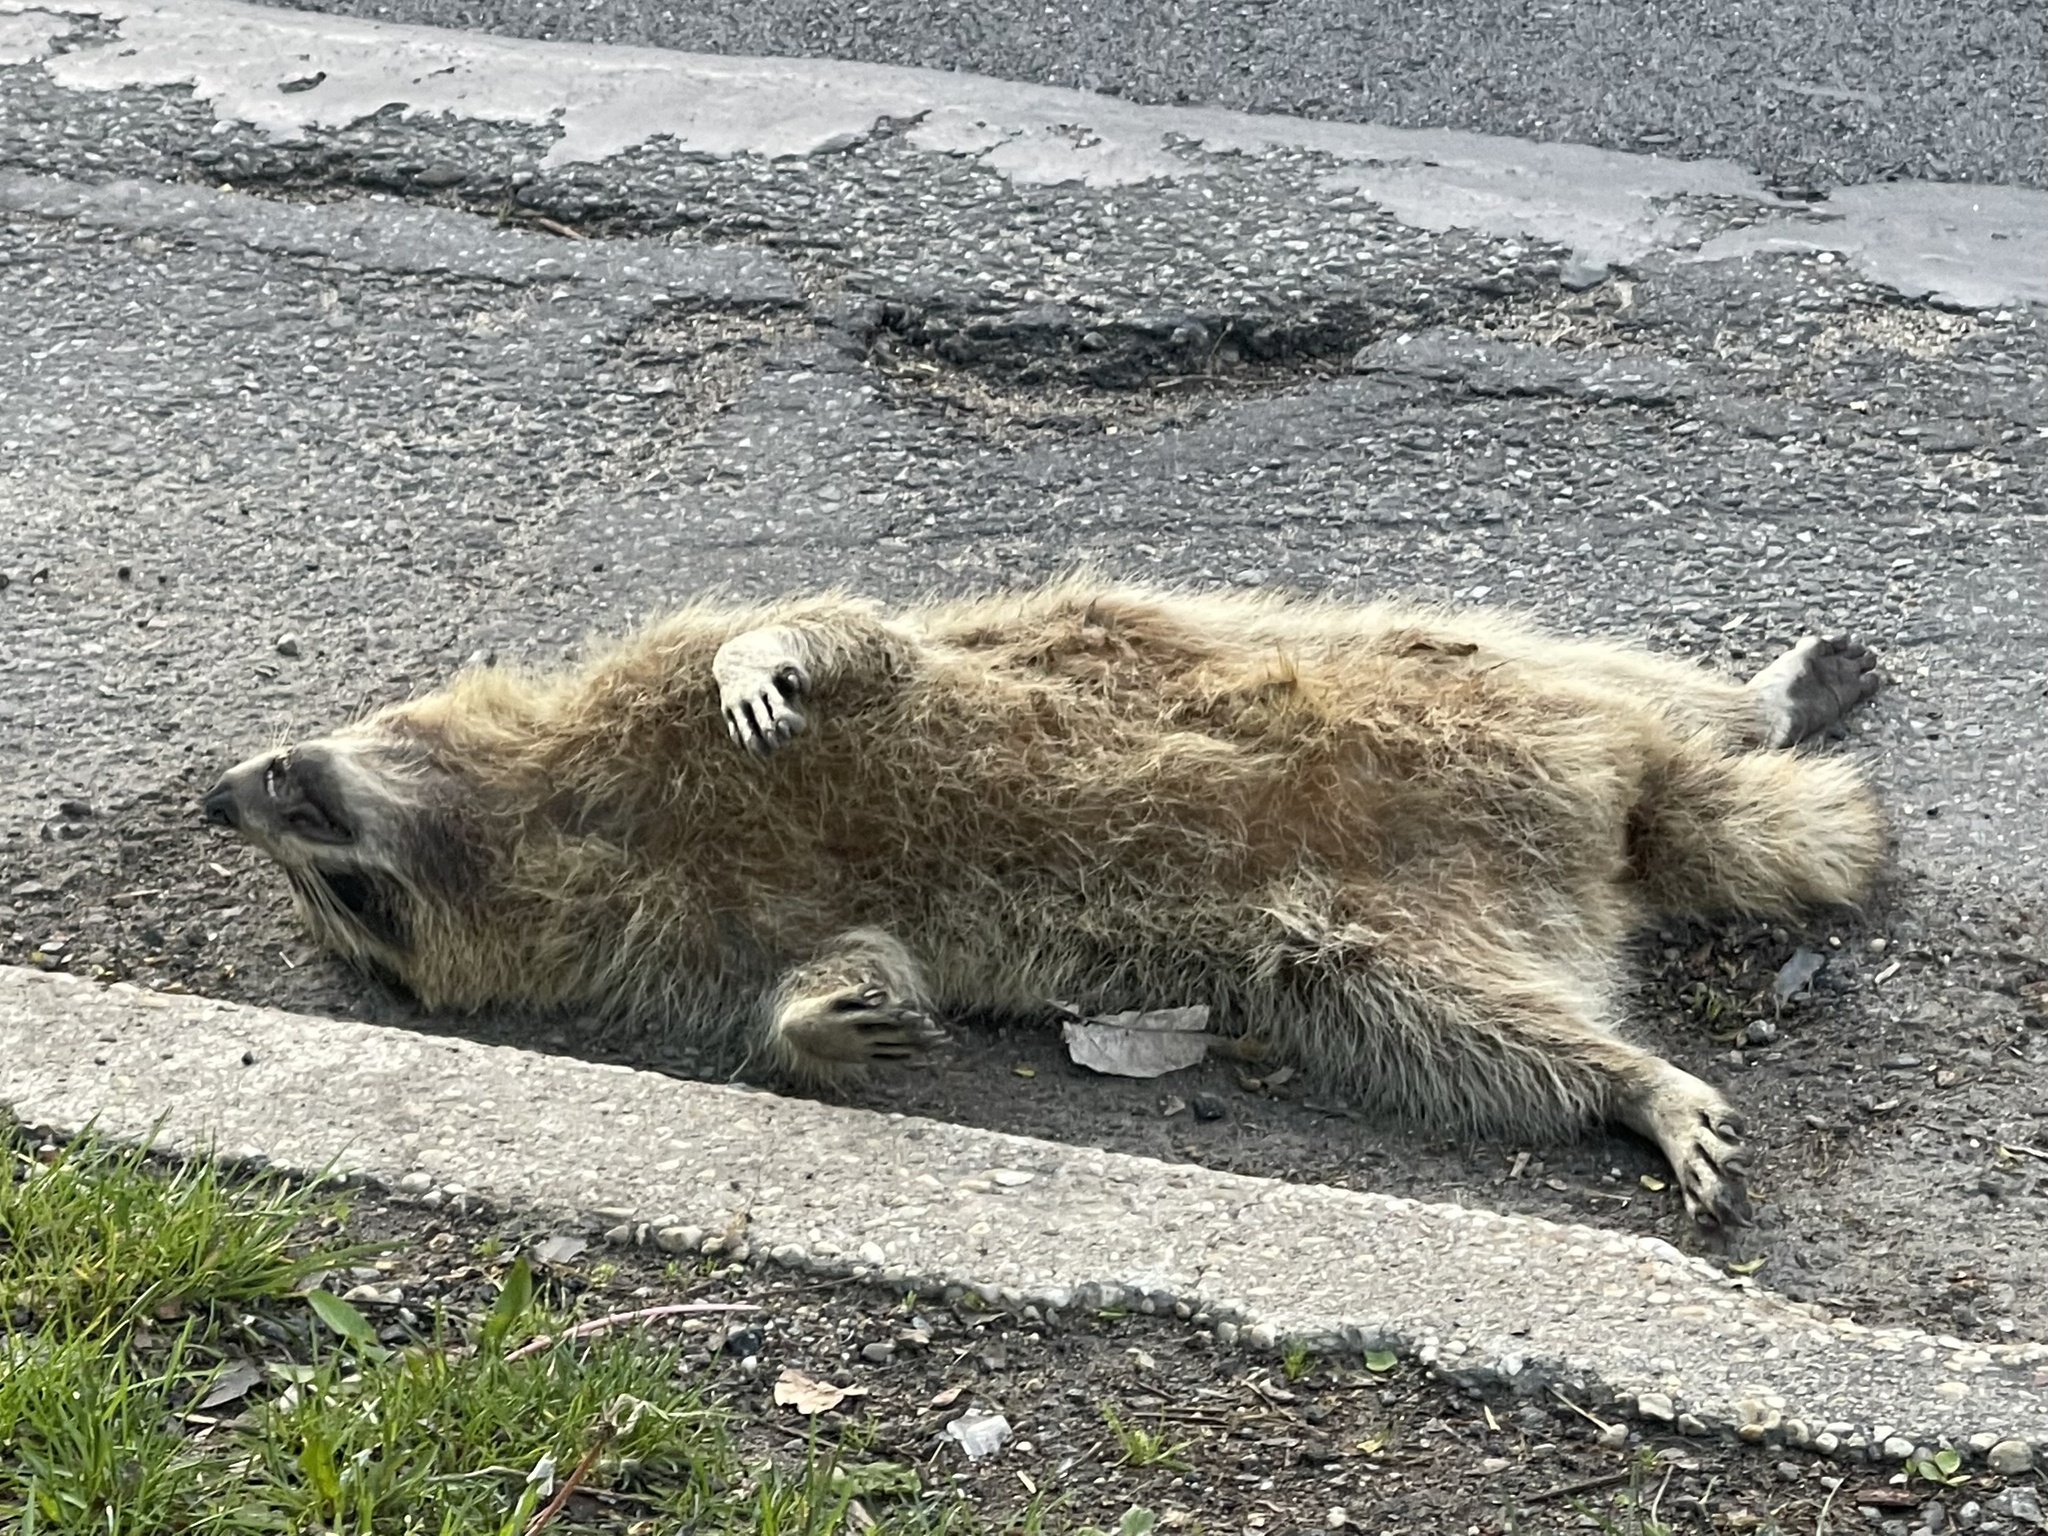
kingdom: Animalia
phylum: Chordata
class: Mammalia
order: Carnivora
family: Procyonidae
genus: Procyon
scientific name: Procyon lotor
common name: Raccoon
